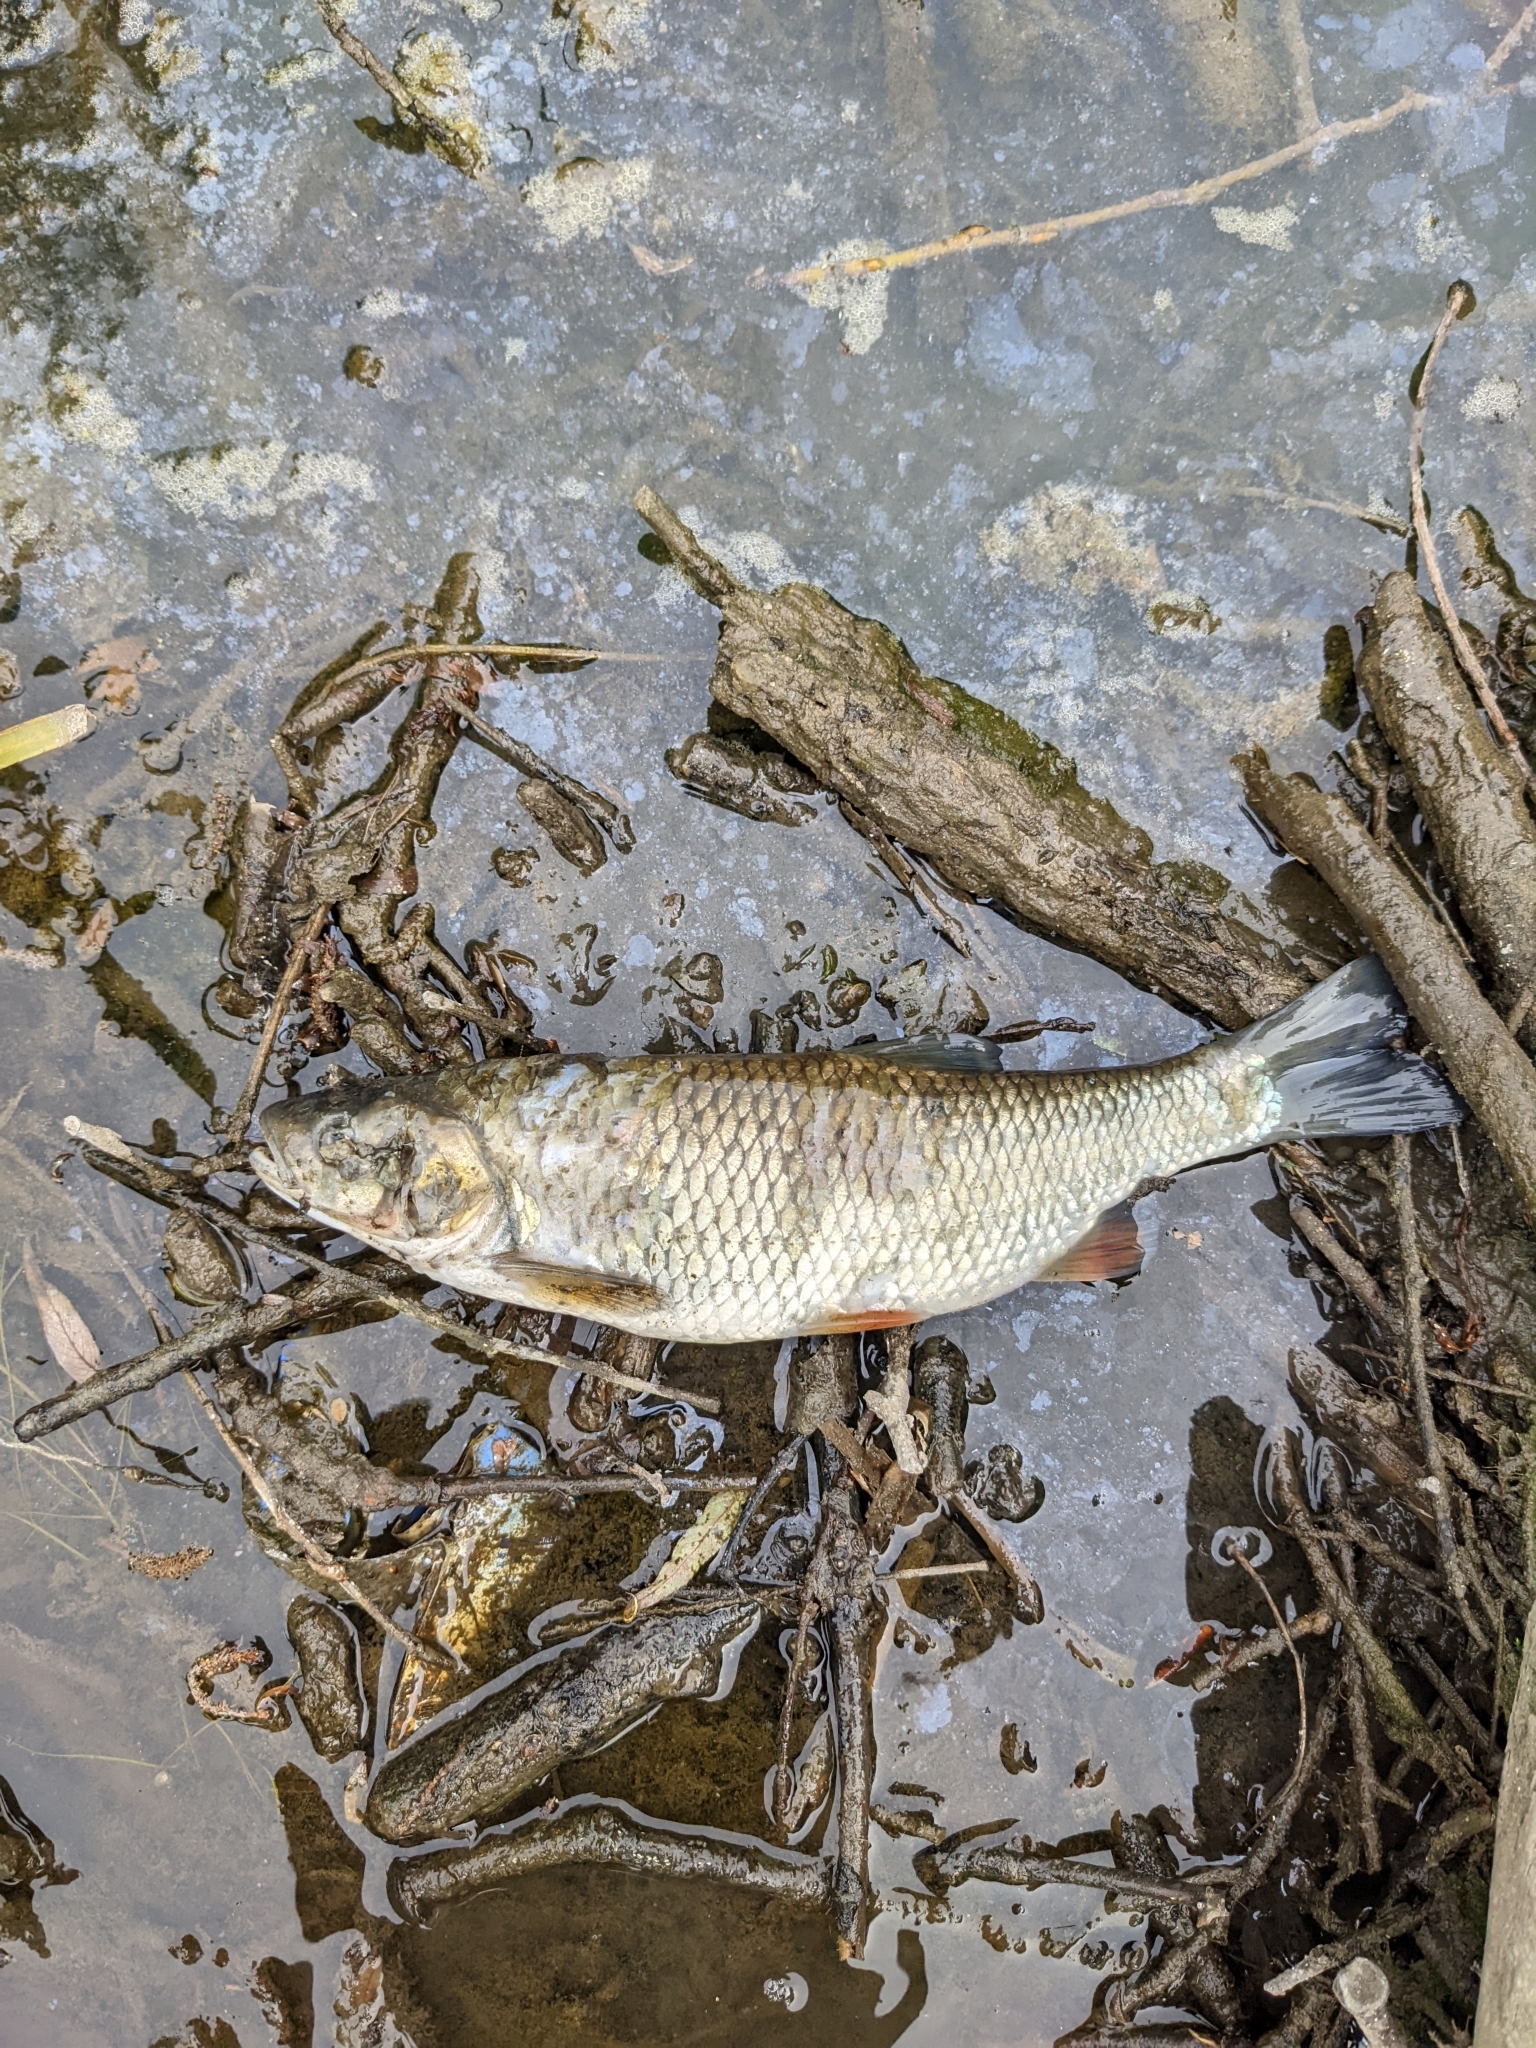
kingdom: Animalia
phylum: Chordata
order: Cypriniformes
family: Cyprinidae
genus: Squalius
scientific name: Squalius cephalus
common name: Chub
